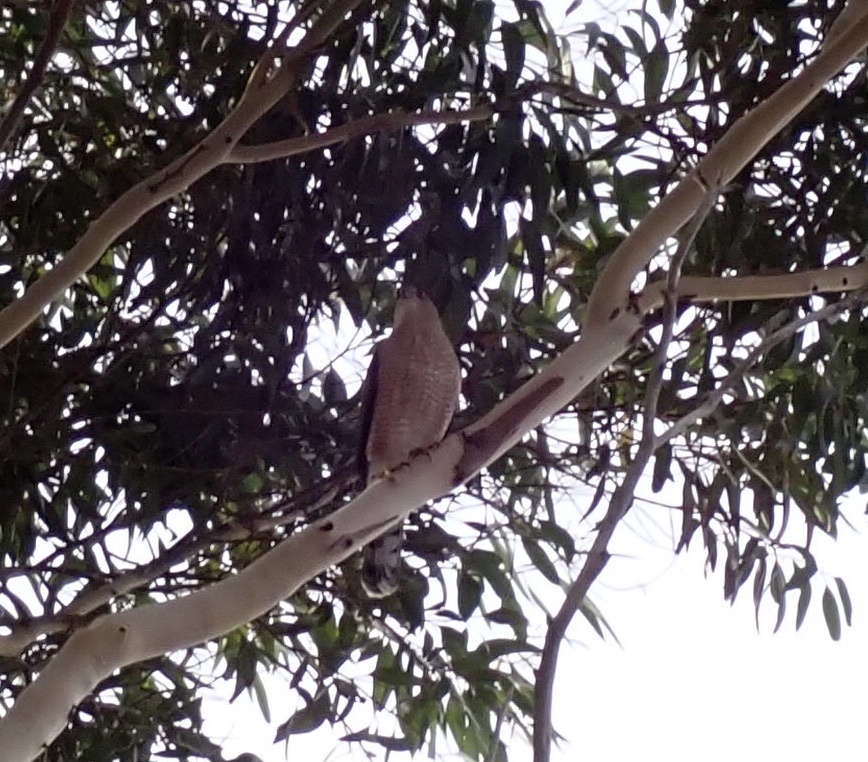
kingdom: Animalia
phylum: Chordata
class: Aves
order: Accipitriformes
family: Accipitridae
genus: Accipiter
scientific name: Accipiter cooperii
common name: Cooper's hawk
